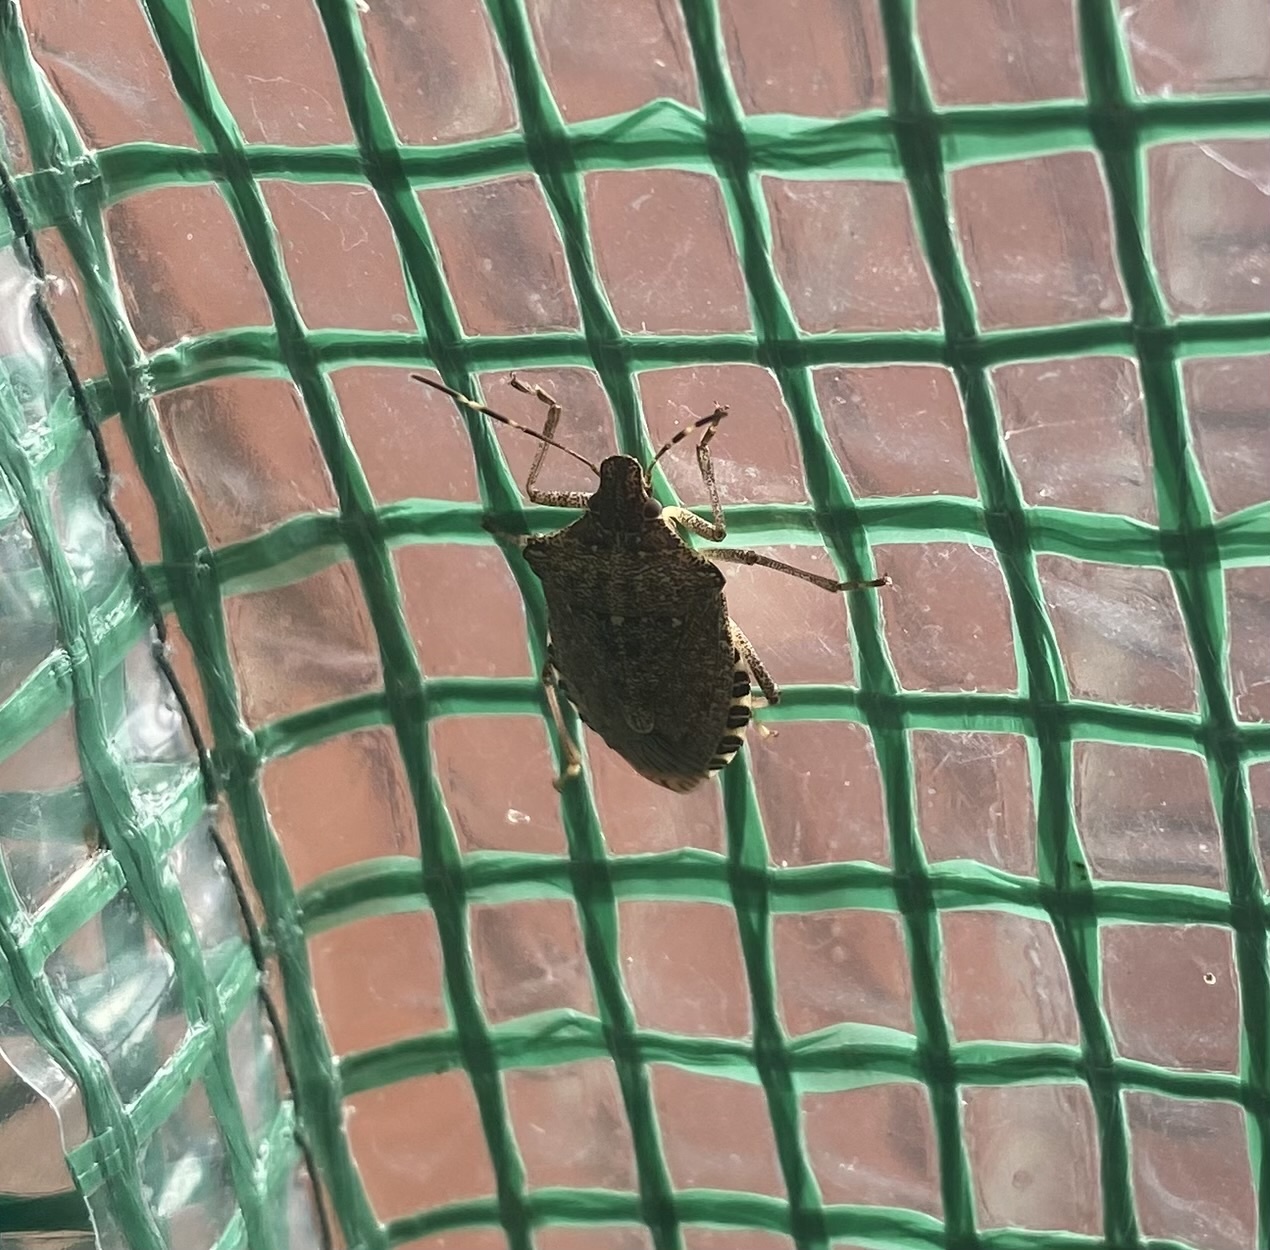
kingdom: Animalia
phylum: Arthropoda
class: Insecta
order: Hemiptera
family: Pentatomidae
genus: Halyomorpha
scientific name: Halyomorpha halys
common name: Brown marmorated stink bug
